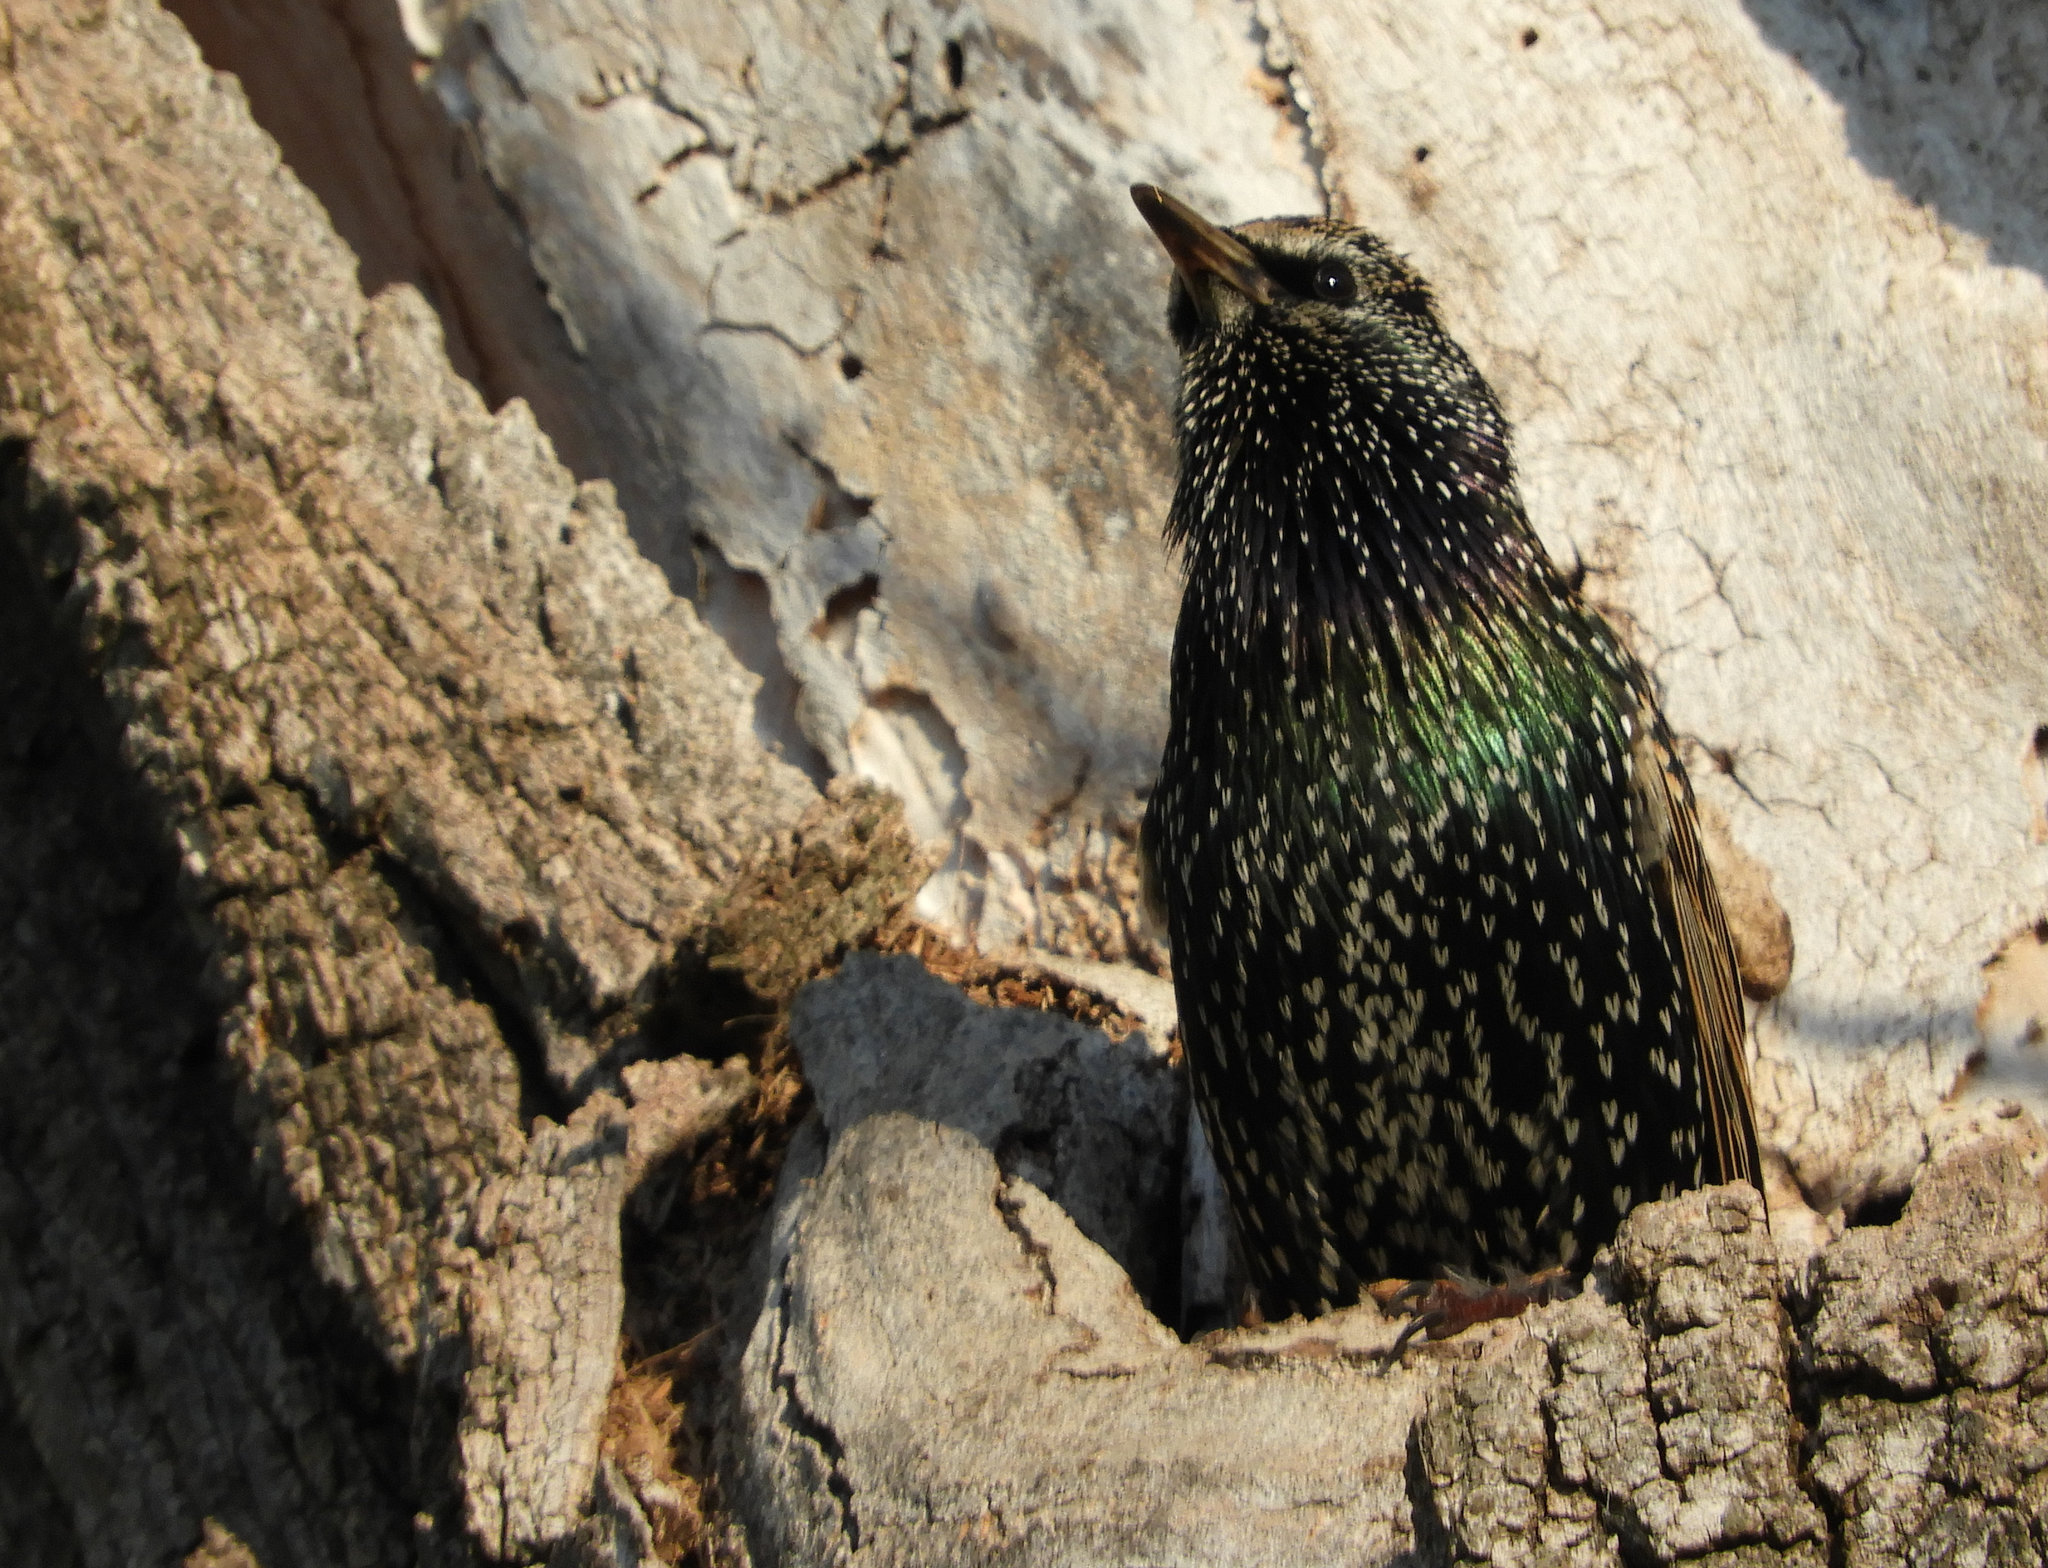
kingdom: Animalia
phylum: Chordata
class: Aves
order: Passeriformes
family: Sturnidae
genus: Sturnus
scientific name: Sturnus vulgaris
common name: Common starling
